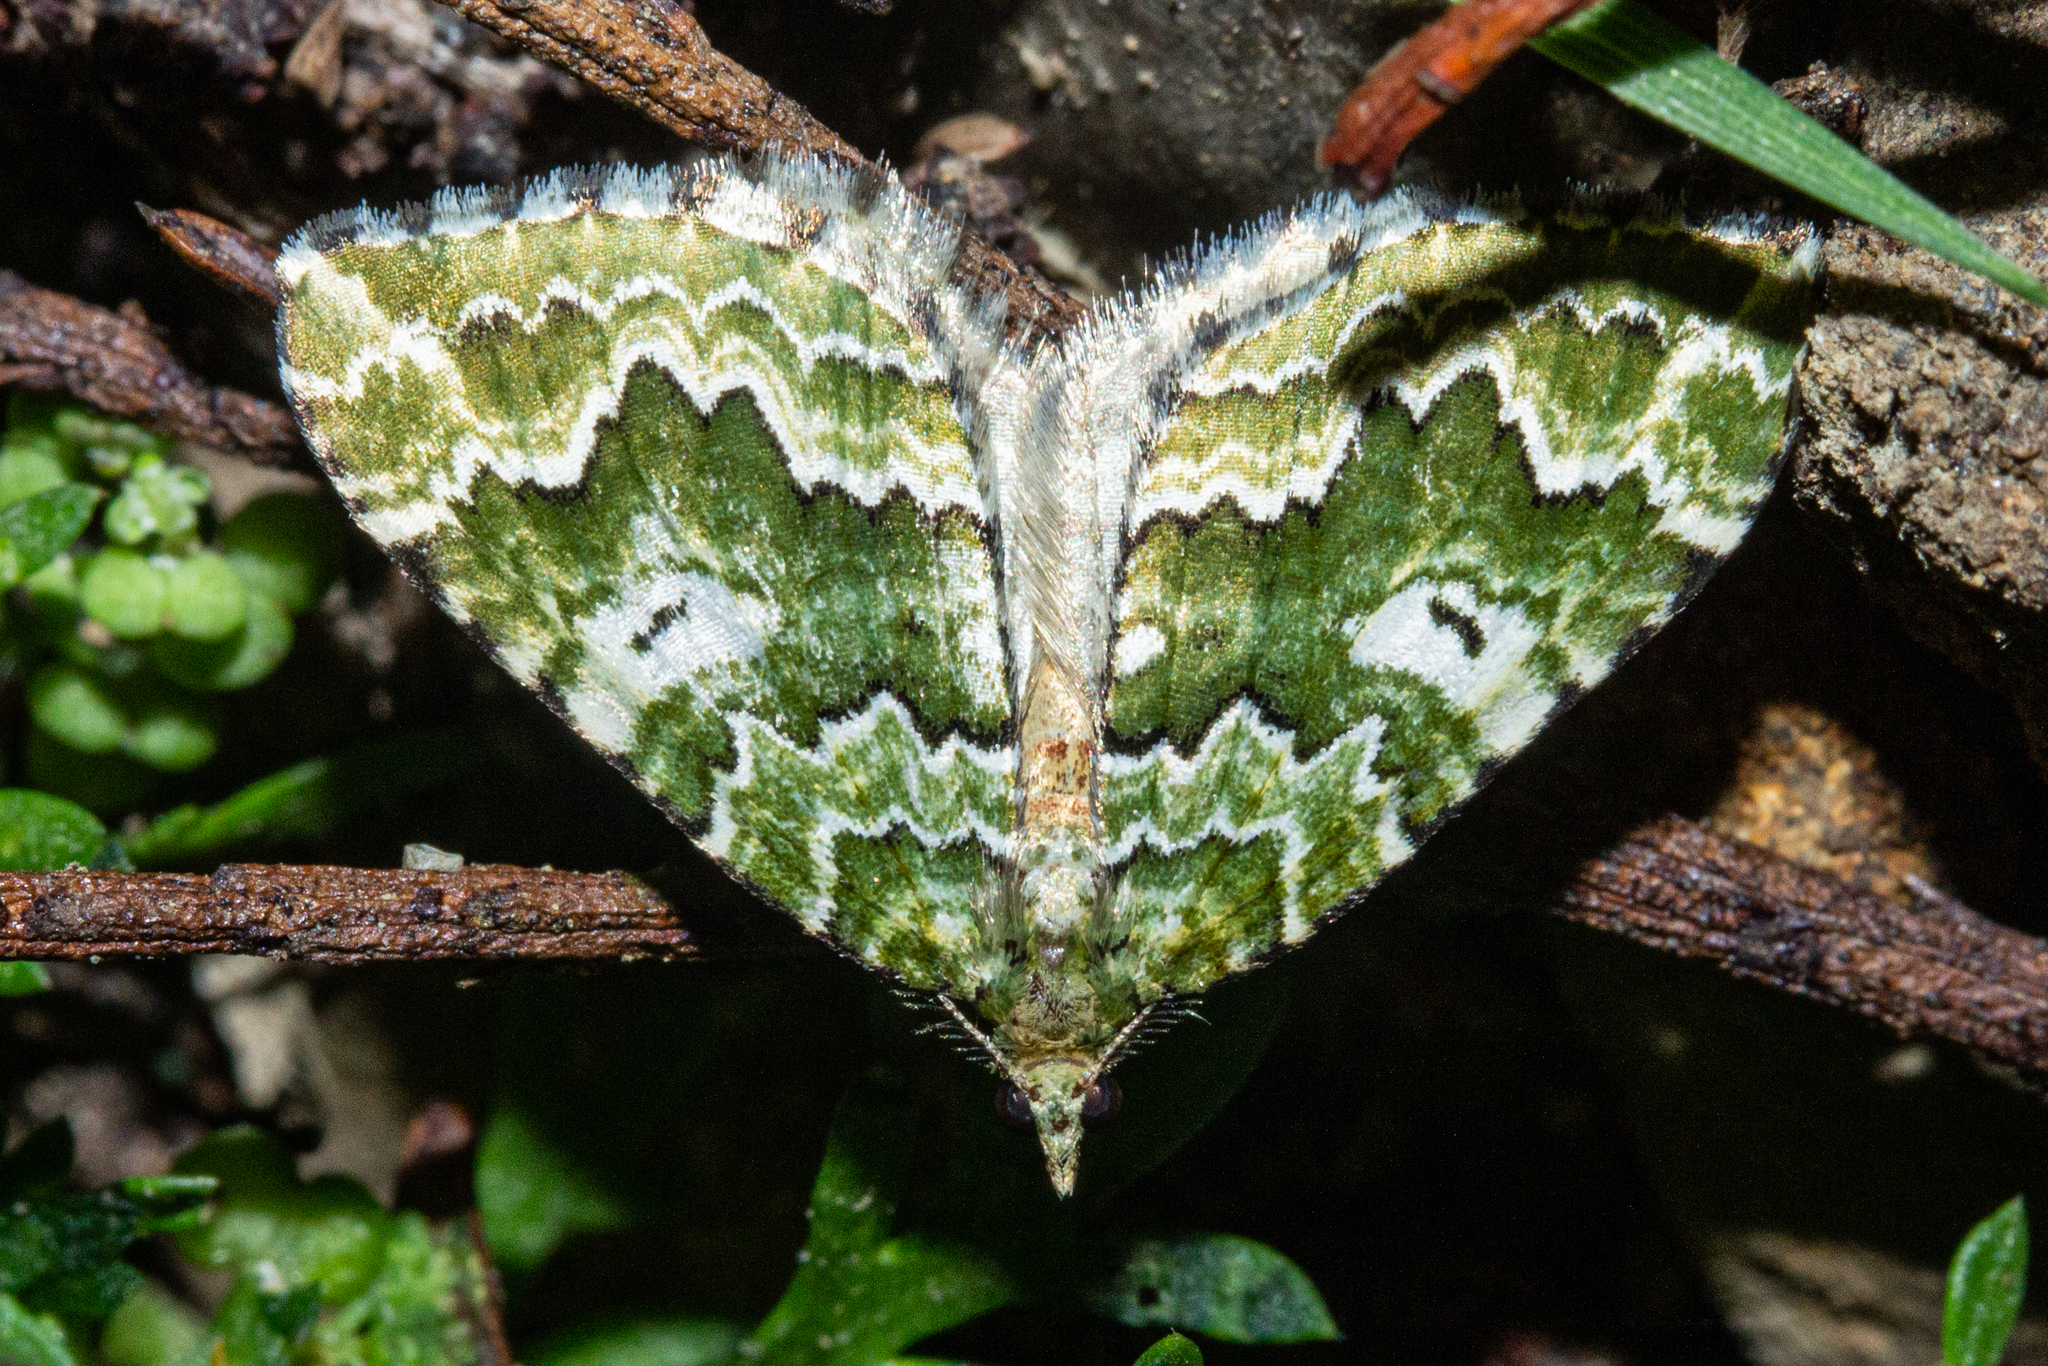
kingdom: Animalia
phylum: Arthropoda
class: Insecta
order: Lepidoptera
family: Geometridae
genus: Asaphodes
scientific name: Asaphodes beata
